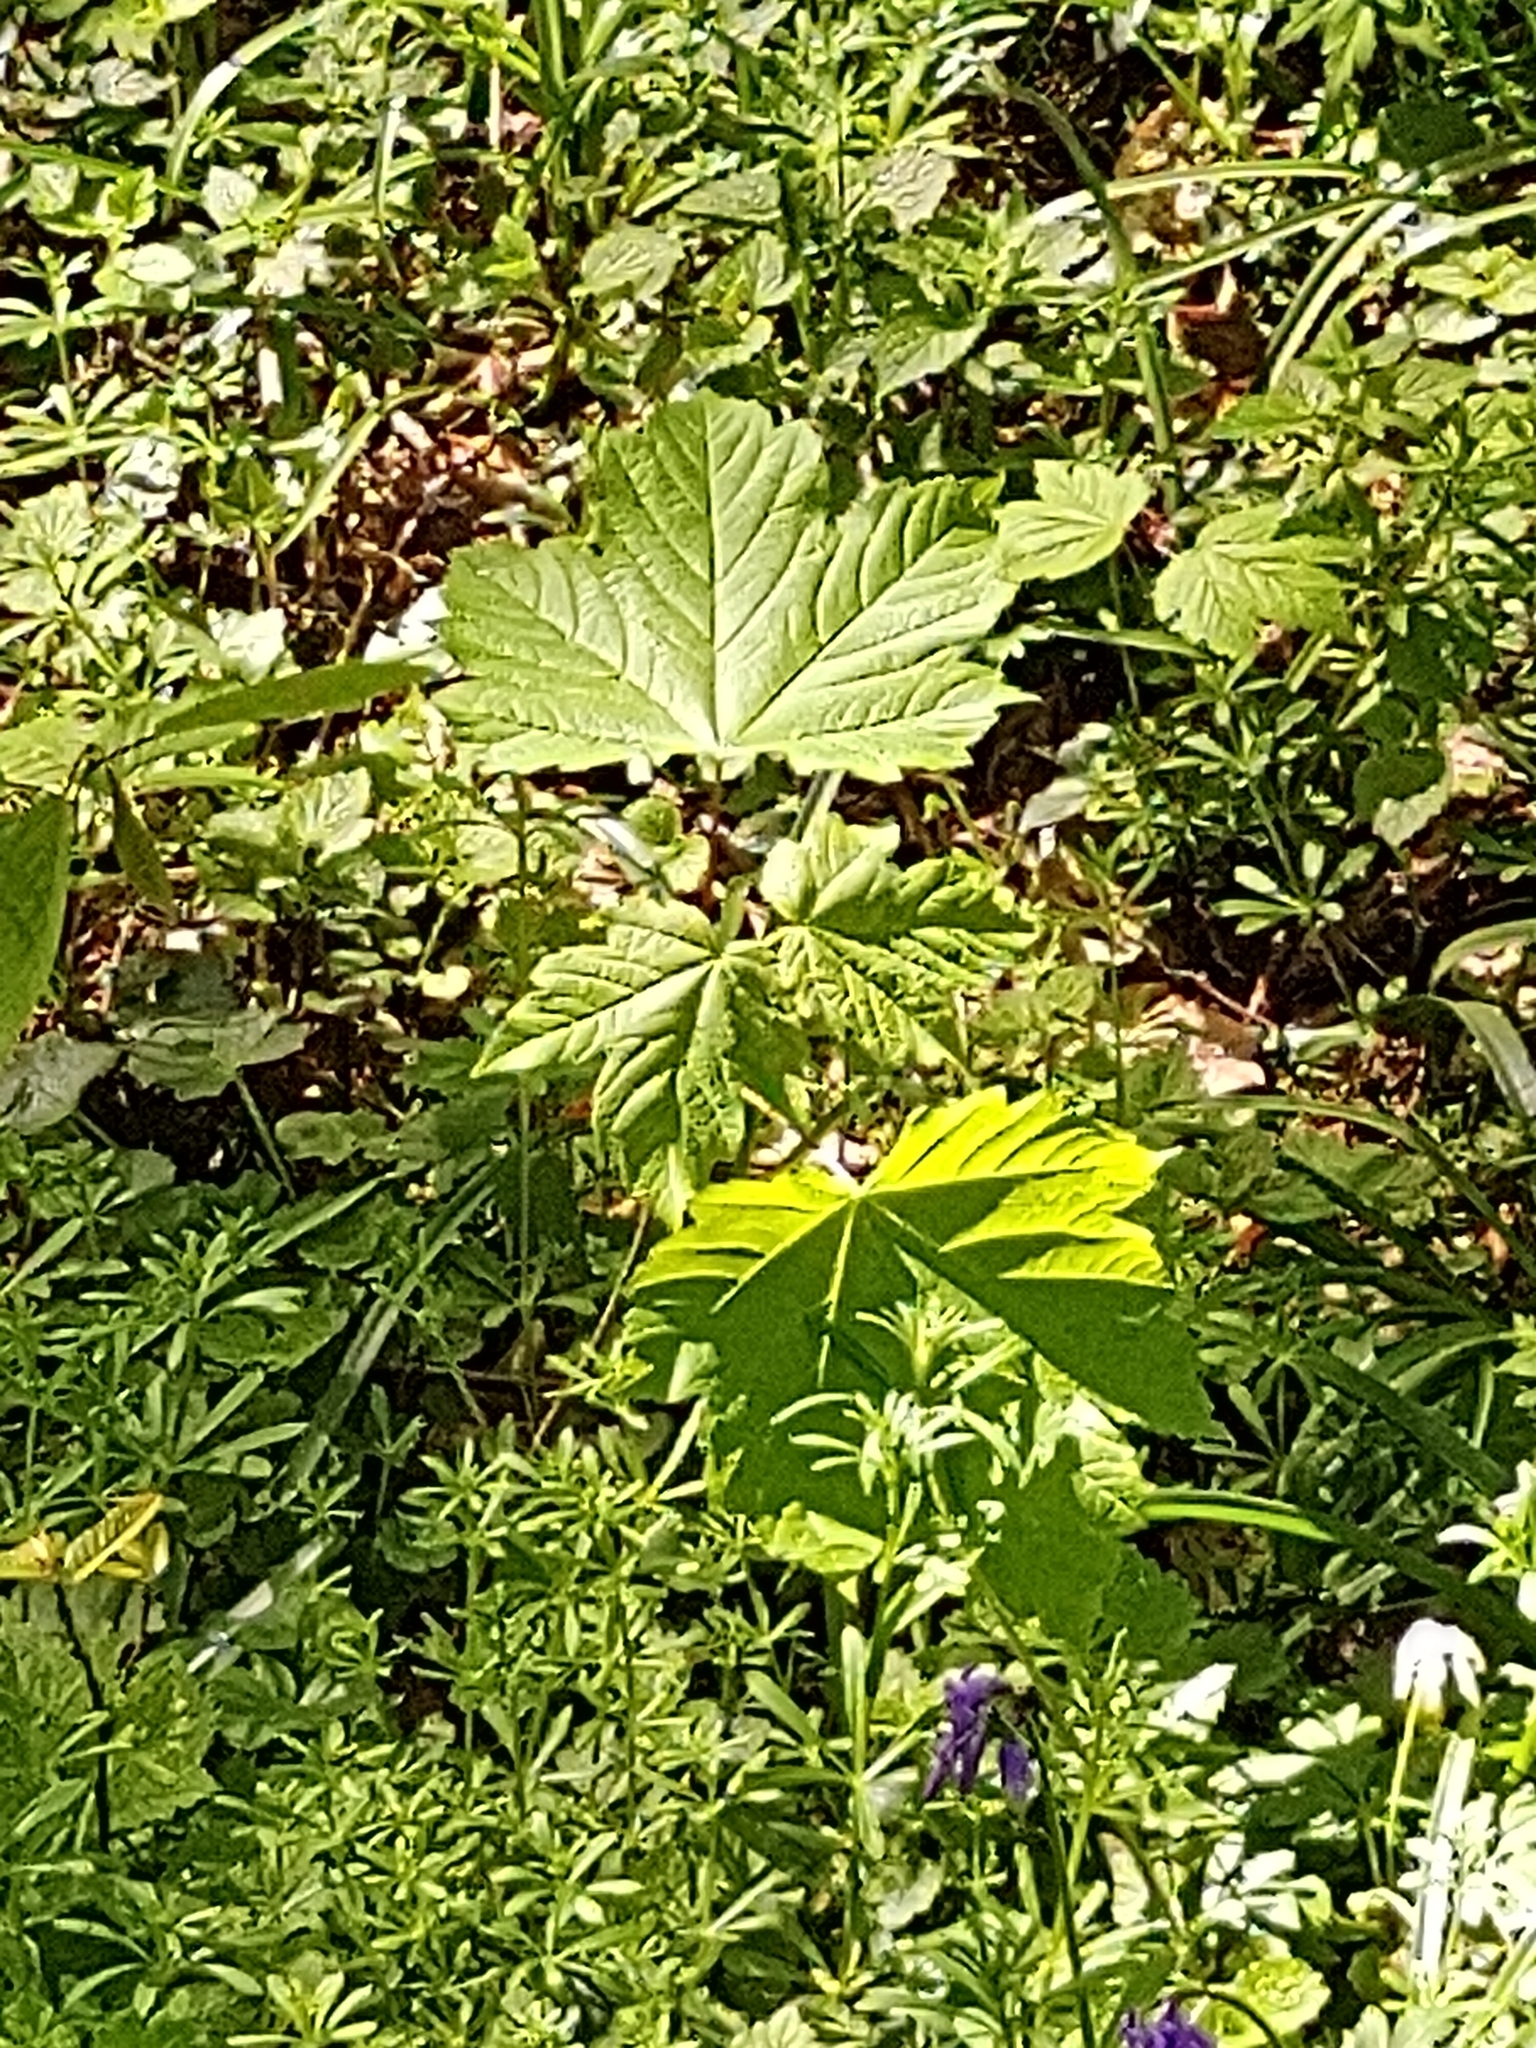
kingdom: Plantae
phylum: Tracheophyta
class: Magnoliopsida
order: Sapindales
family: Sapindaceae
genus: Acer
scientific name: Acer pseudoplatanus
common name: Sycamore
